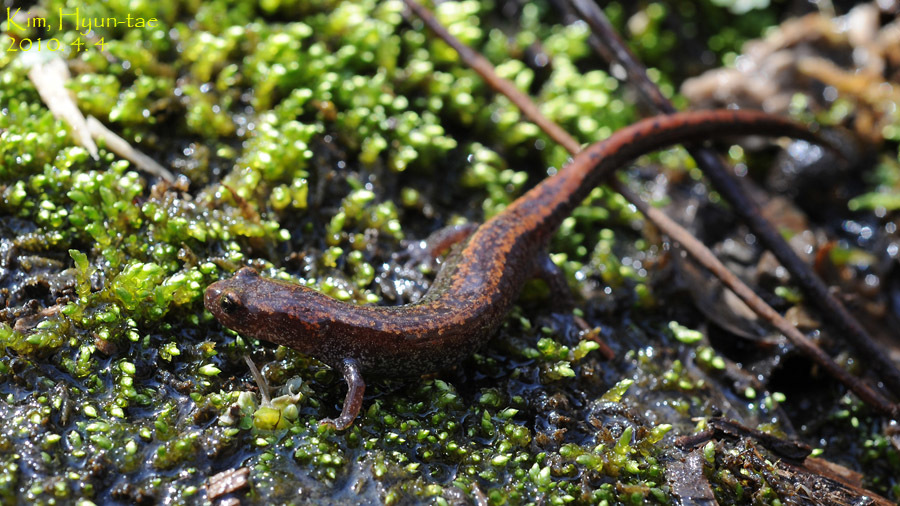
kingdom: Animalia
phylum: Chordata
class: Amphibia
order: Caudata
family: Plethodontidae
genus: Karsenia
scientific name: Karsenia koreana
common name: Korean crevice salamander
